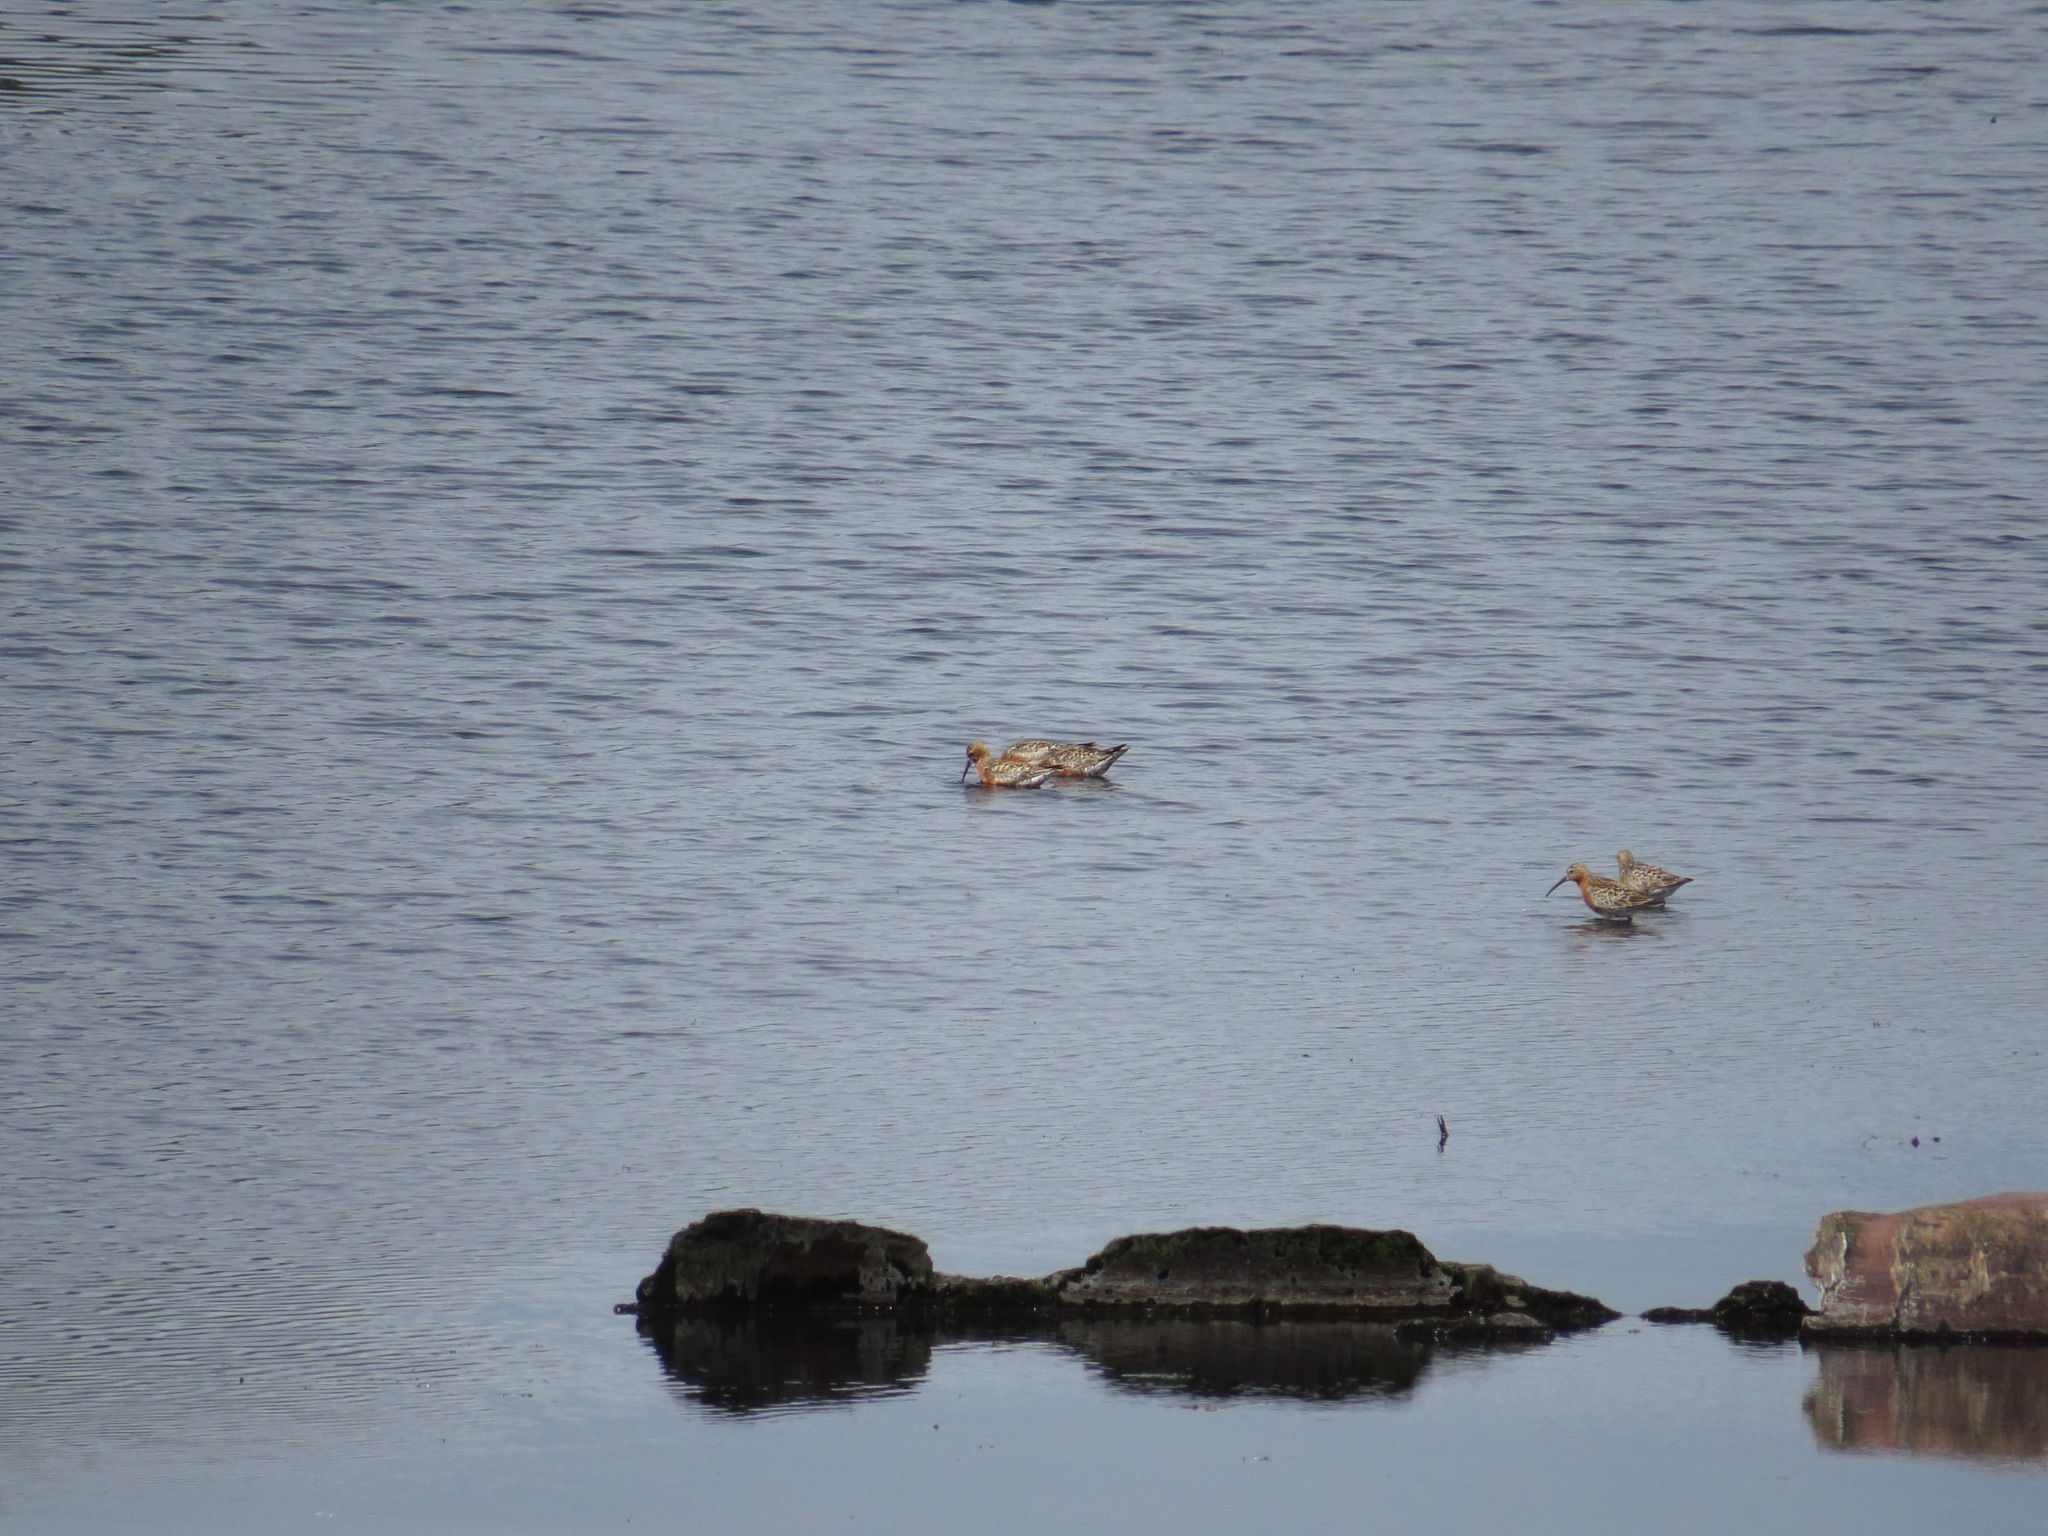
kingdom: Animalia
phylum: Chordata
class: Aves
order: Charadriiformes
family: Scolopacidae
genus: Calidris
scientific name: Calidris ferruginea
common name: Curlew sandpiper
